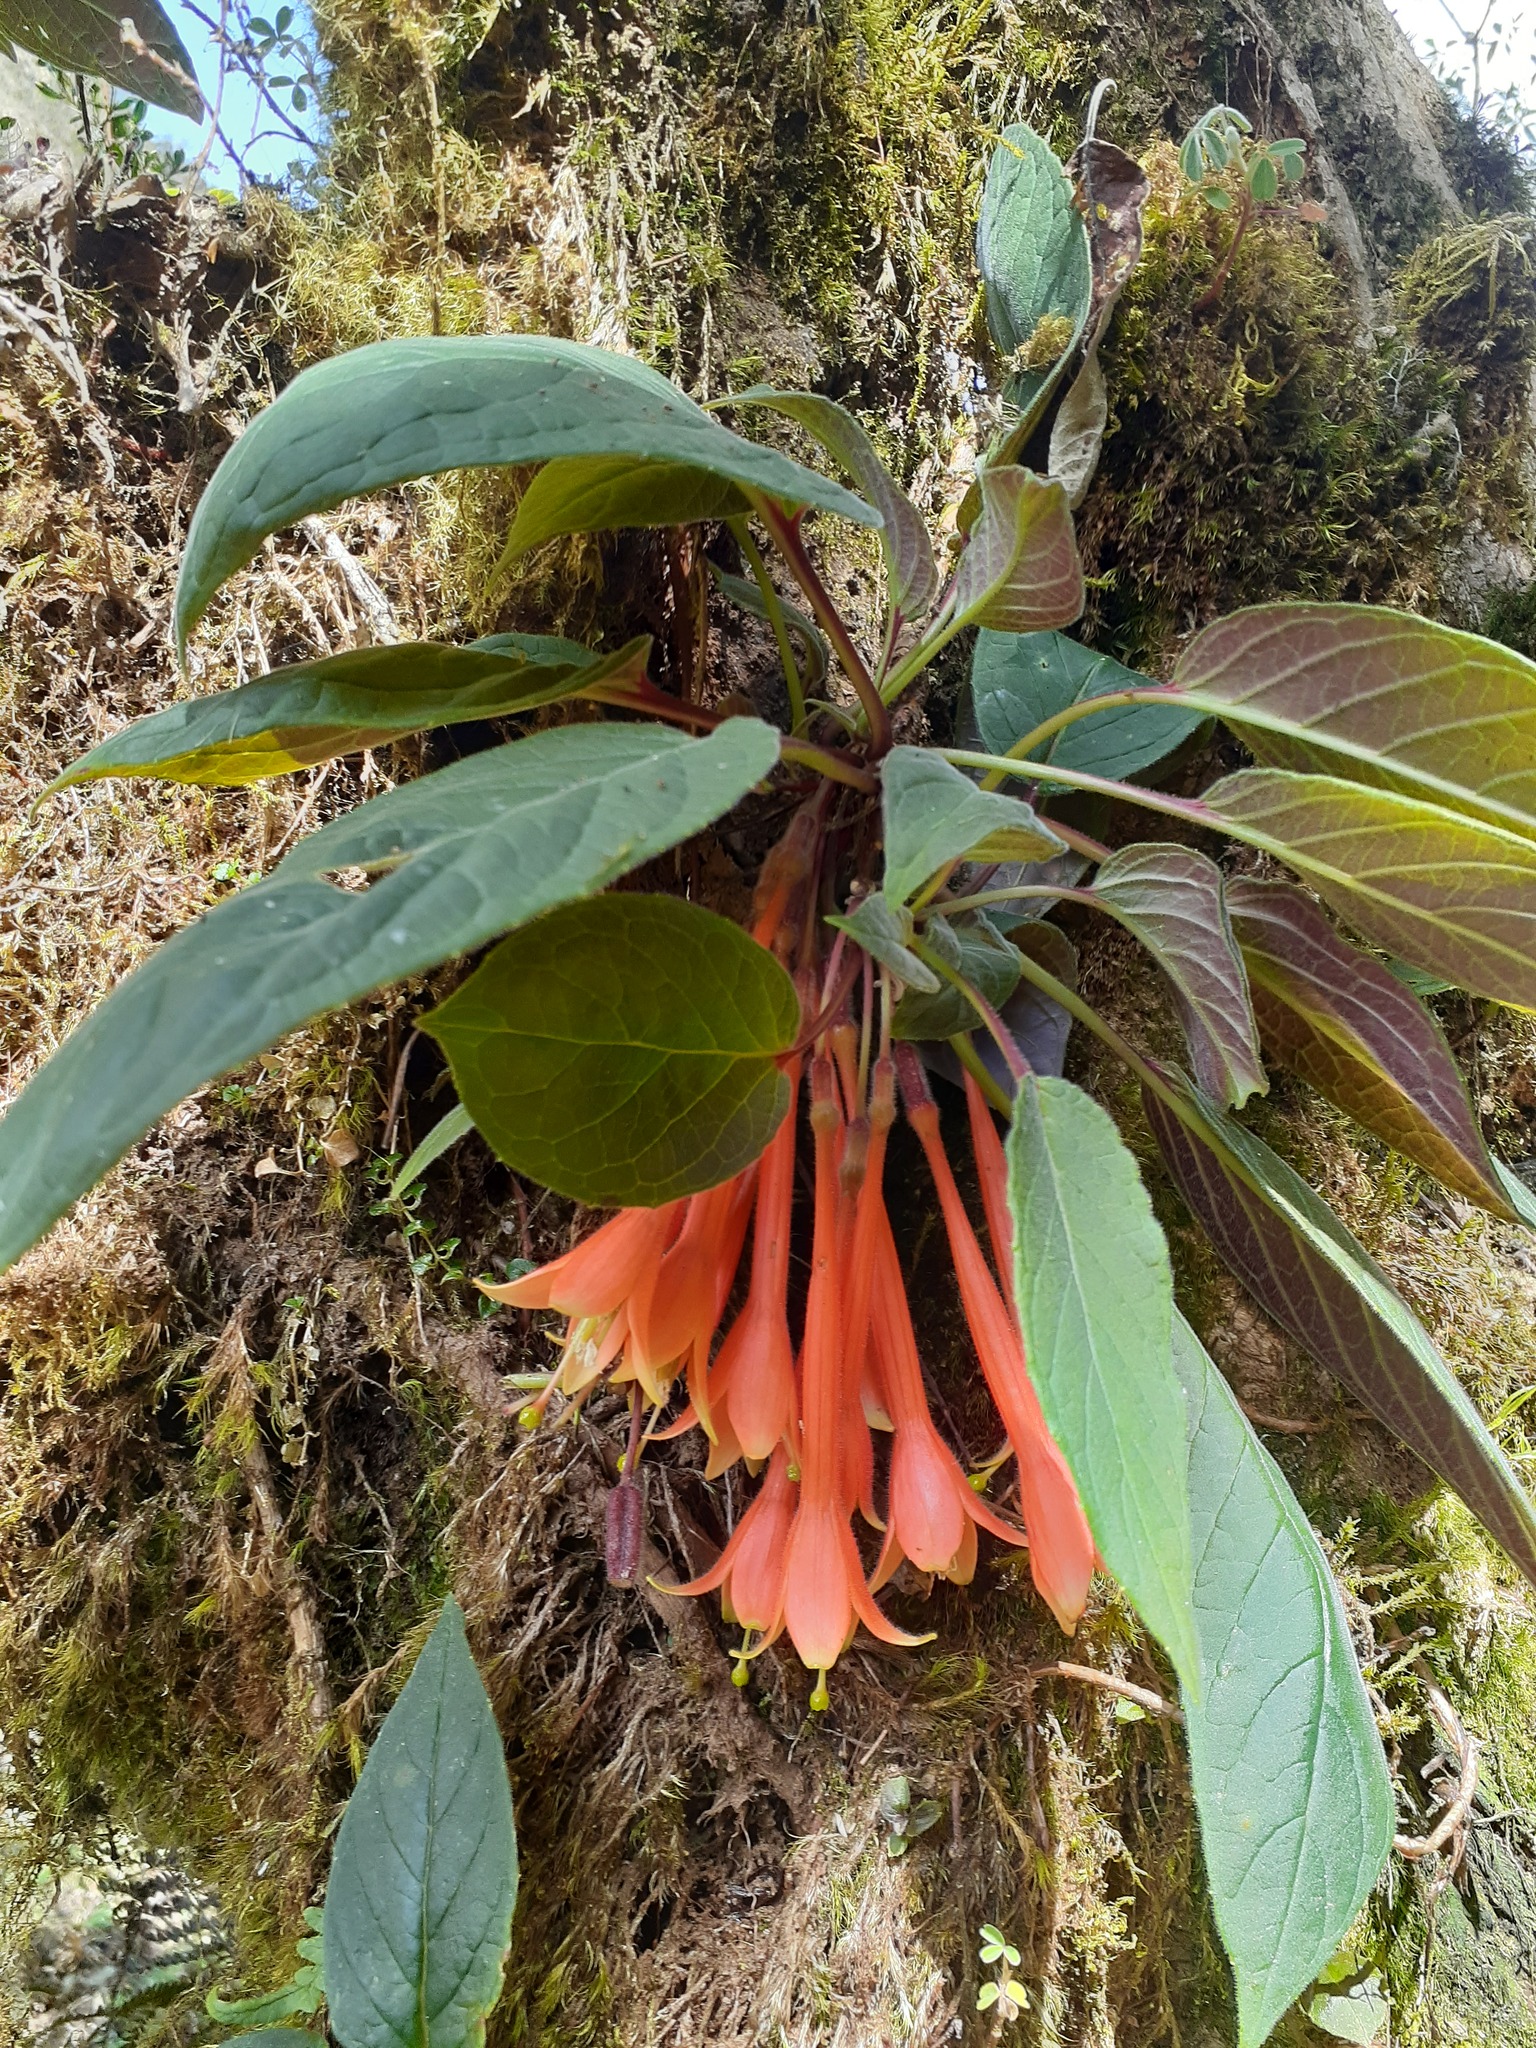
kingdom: Plantae
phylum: Tracheophyta
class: Magnoliopsida
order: Myrtales
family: Onagraceae
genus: Fuchsia
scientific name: Fuchsia apetala
